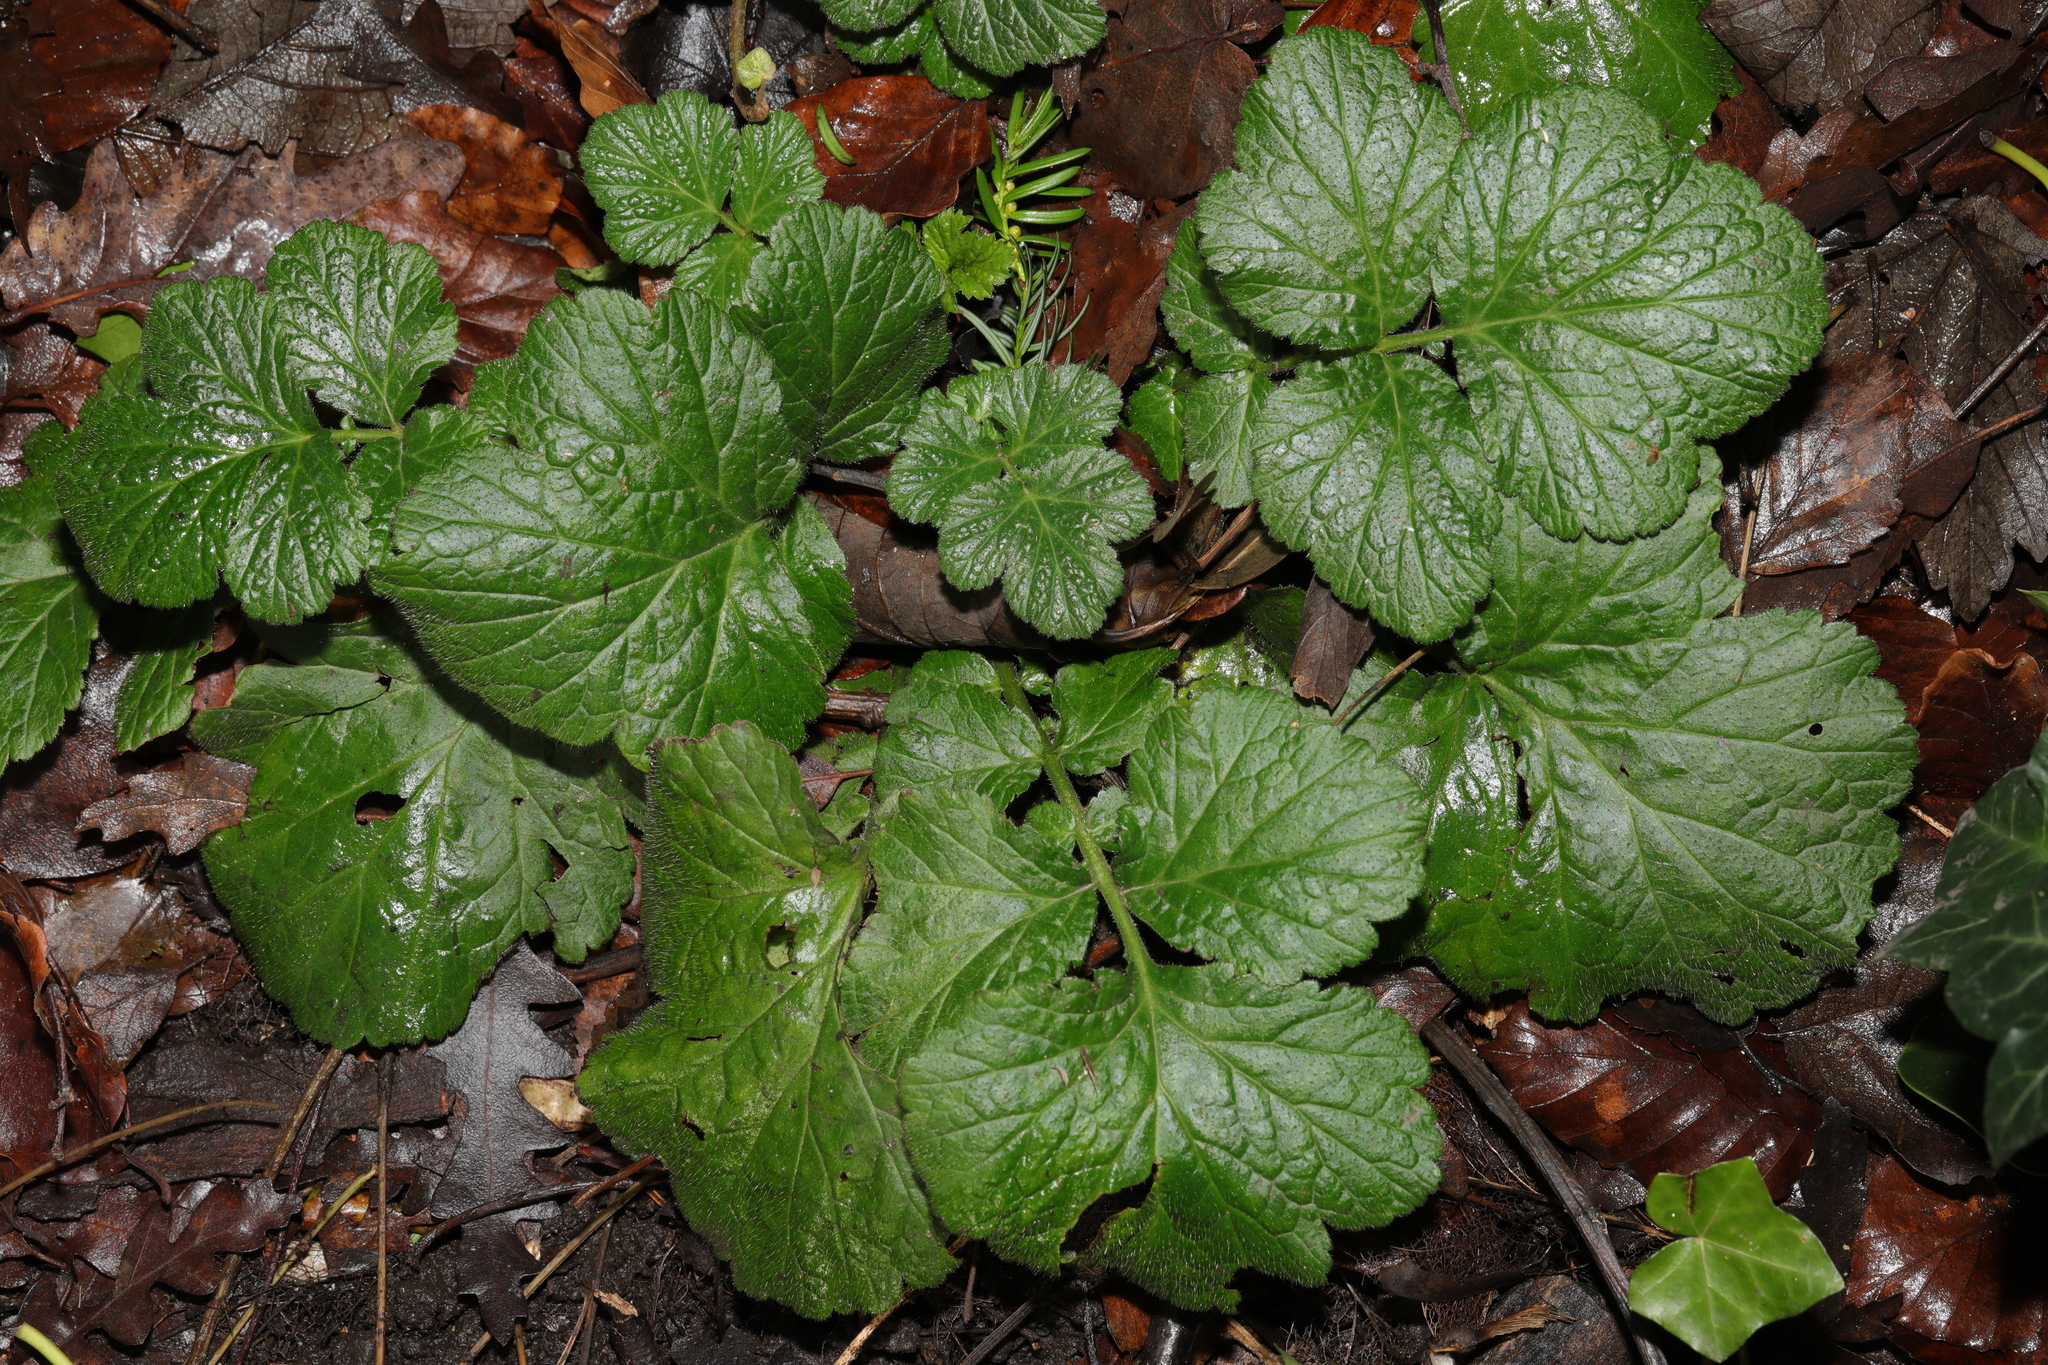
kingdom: Plantae
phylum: Tracheophyta
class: Magnoliopsida
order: Rosales
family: Rosaceae
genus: Geum
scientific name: Geum urbanum
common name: Wood avens
